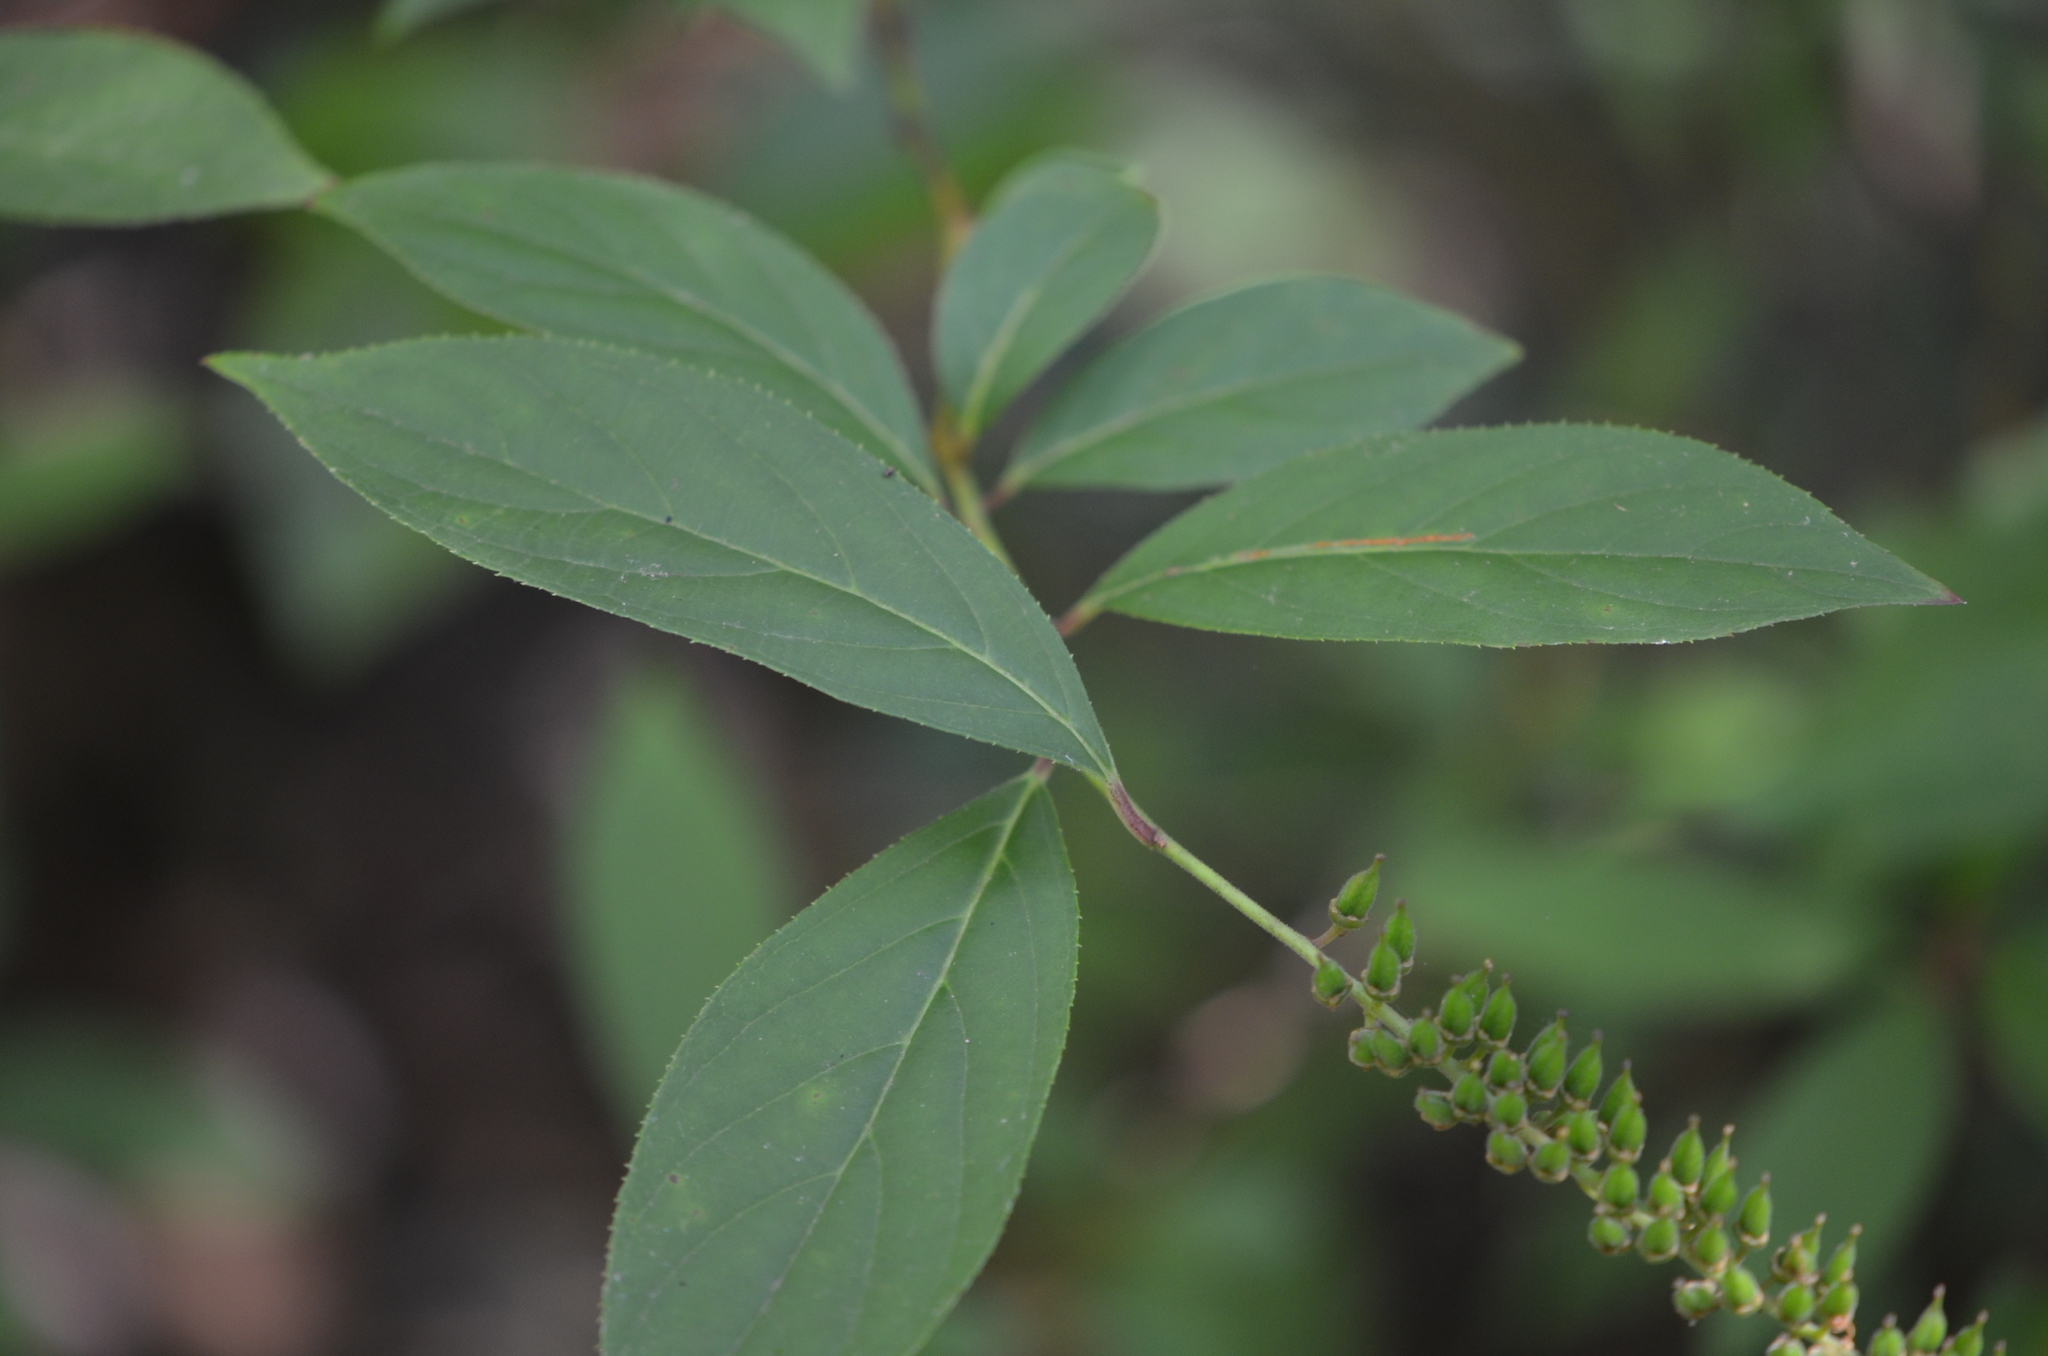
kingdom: Plantae
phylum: Tracheophyta
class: Magnoliopsida
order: Saxifragales
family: Iteaceae
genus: Itea
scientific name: Itea virginica
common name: Sweetspire
